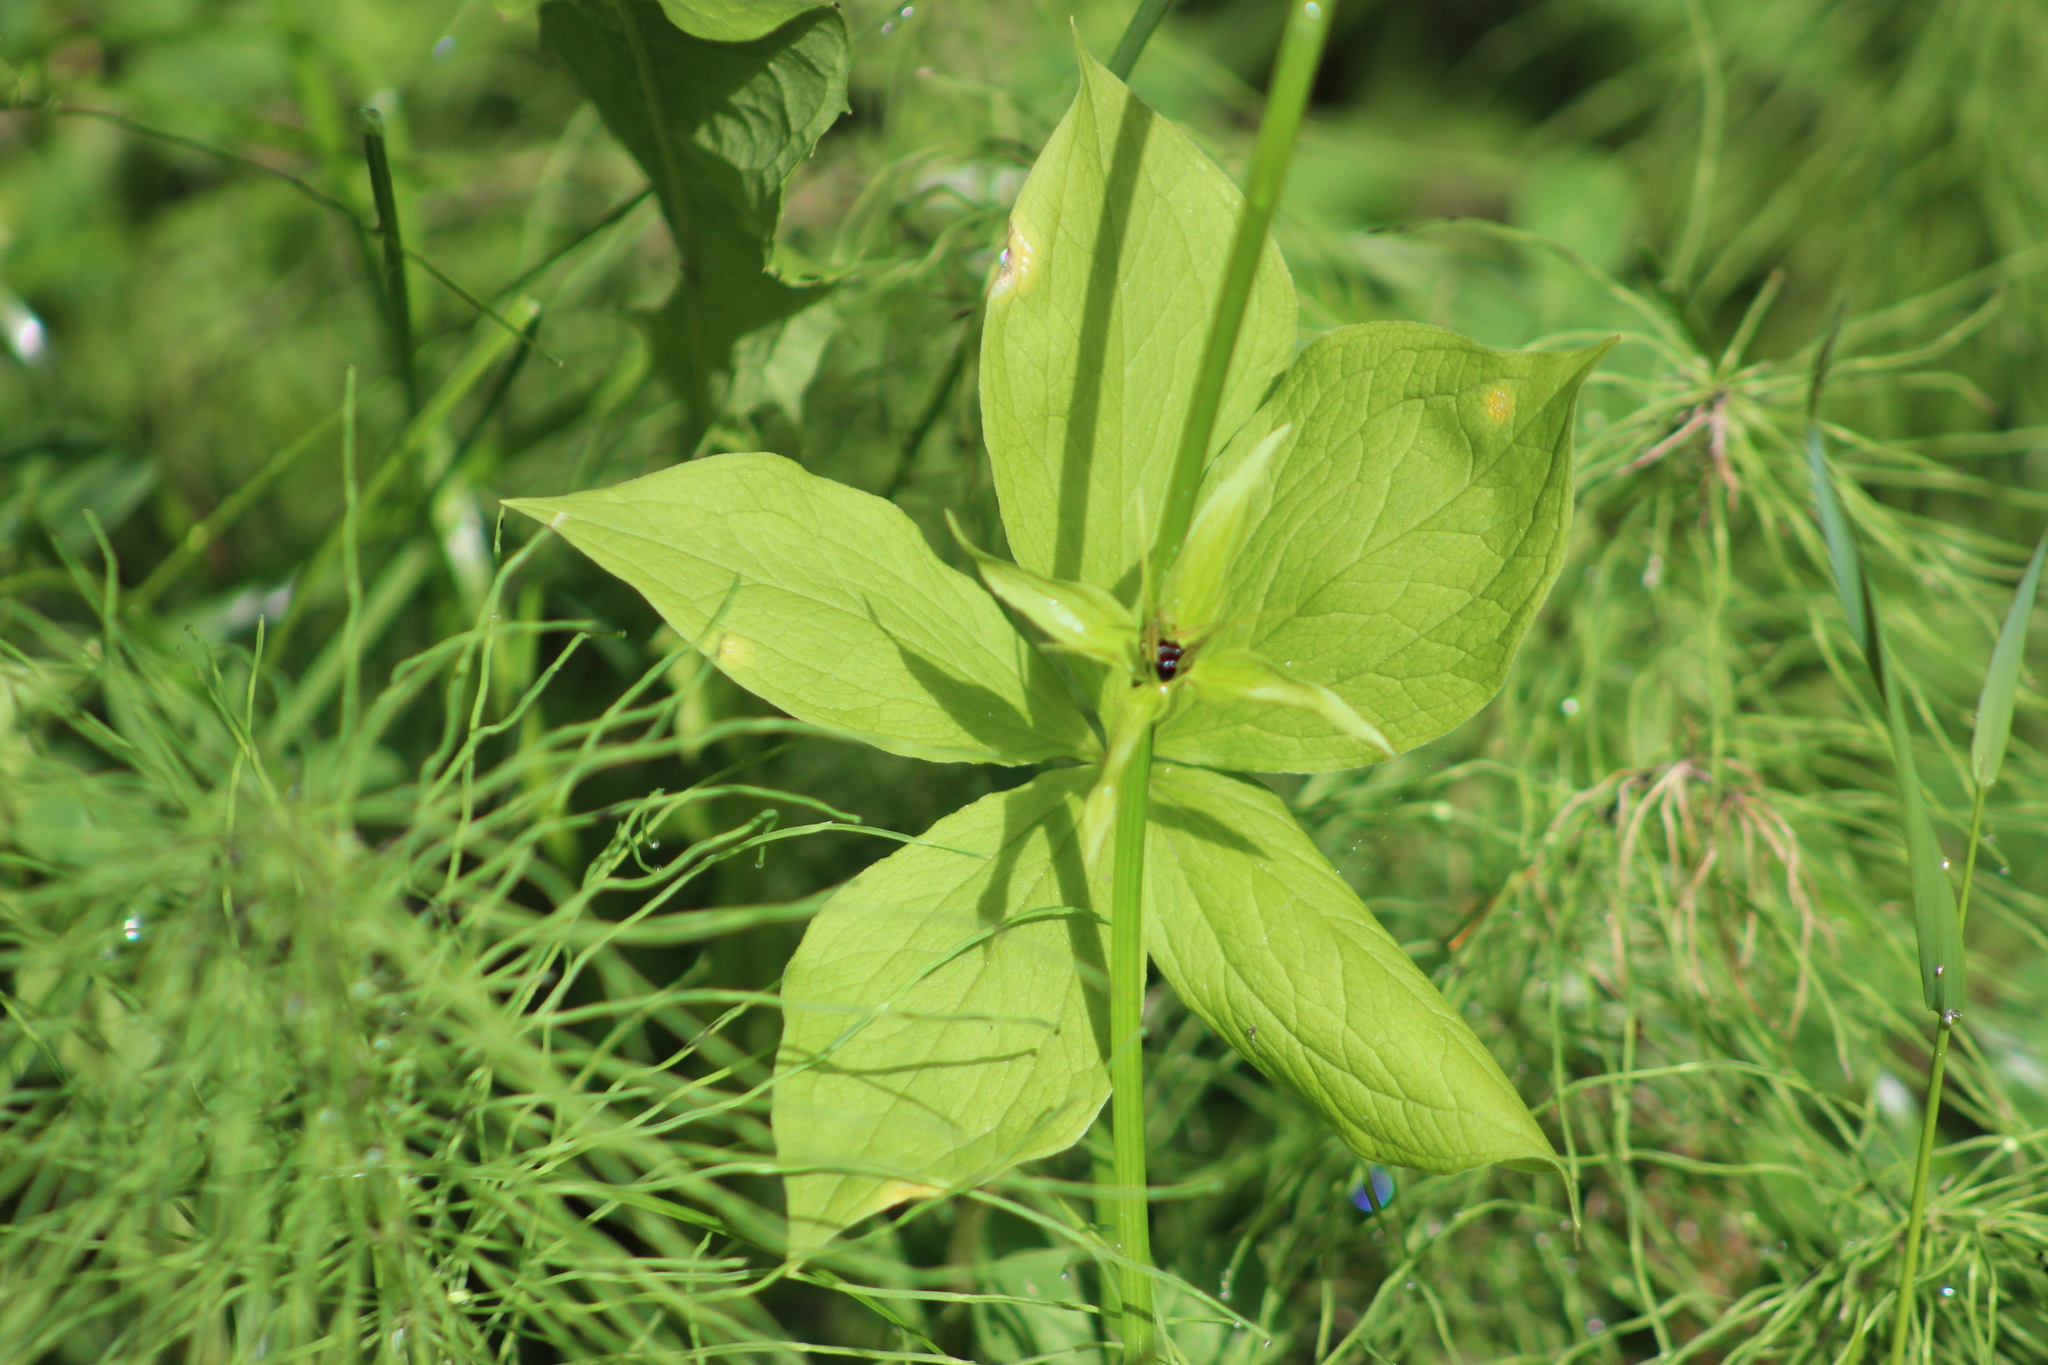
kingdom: Plantae
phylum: Tracheophyta
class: Liliopsida
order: Liliales
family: Melanthiaceae
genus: Paris
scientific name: Paris quadrifolia
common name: Herb-paris
